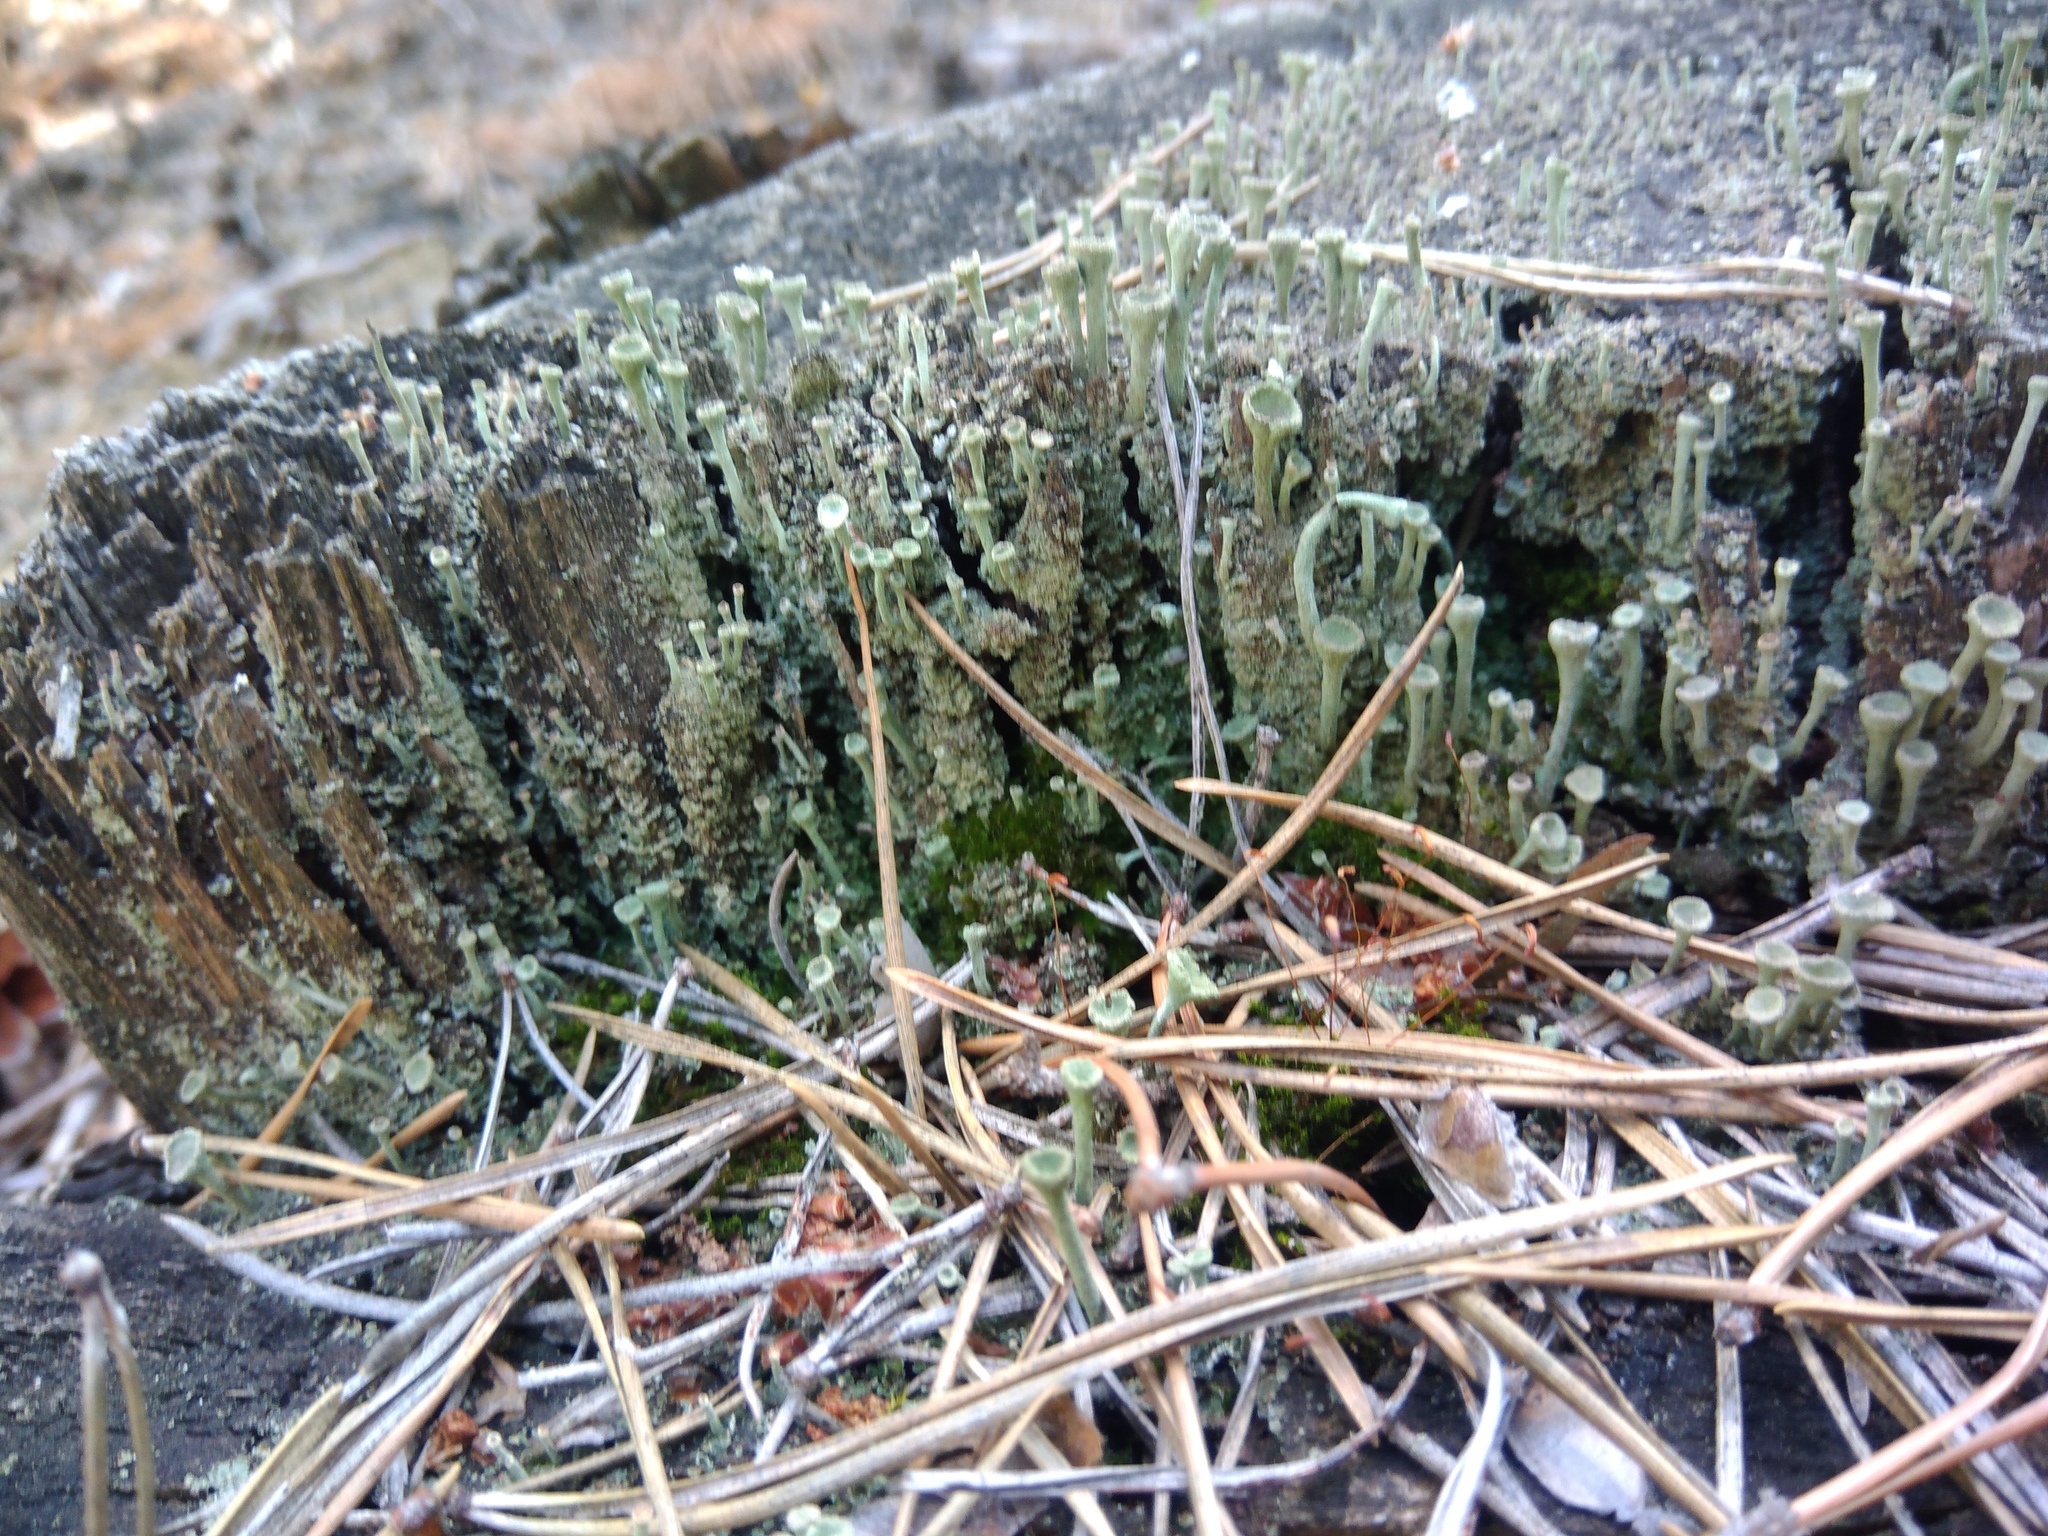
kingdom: Fungi
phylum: Ascomycota
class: Lecanoromycetes
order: Lecanorales
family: Cladoniaceae
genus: Cladonia
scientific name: Cladonia fimbriata
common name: Powdered trumpet lichen
